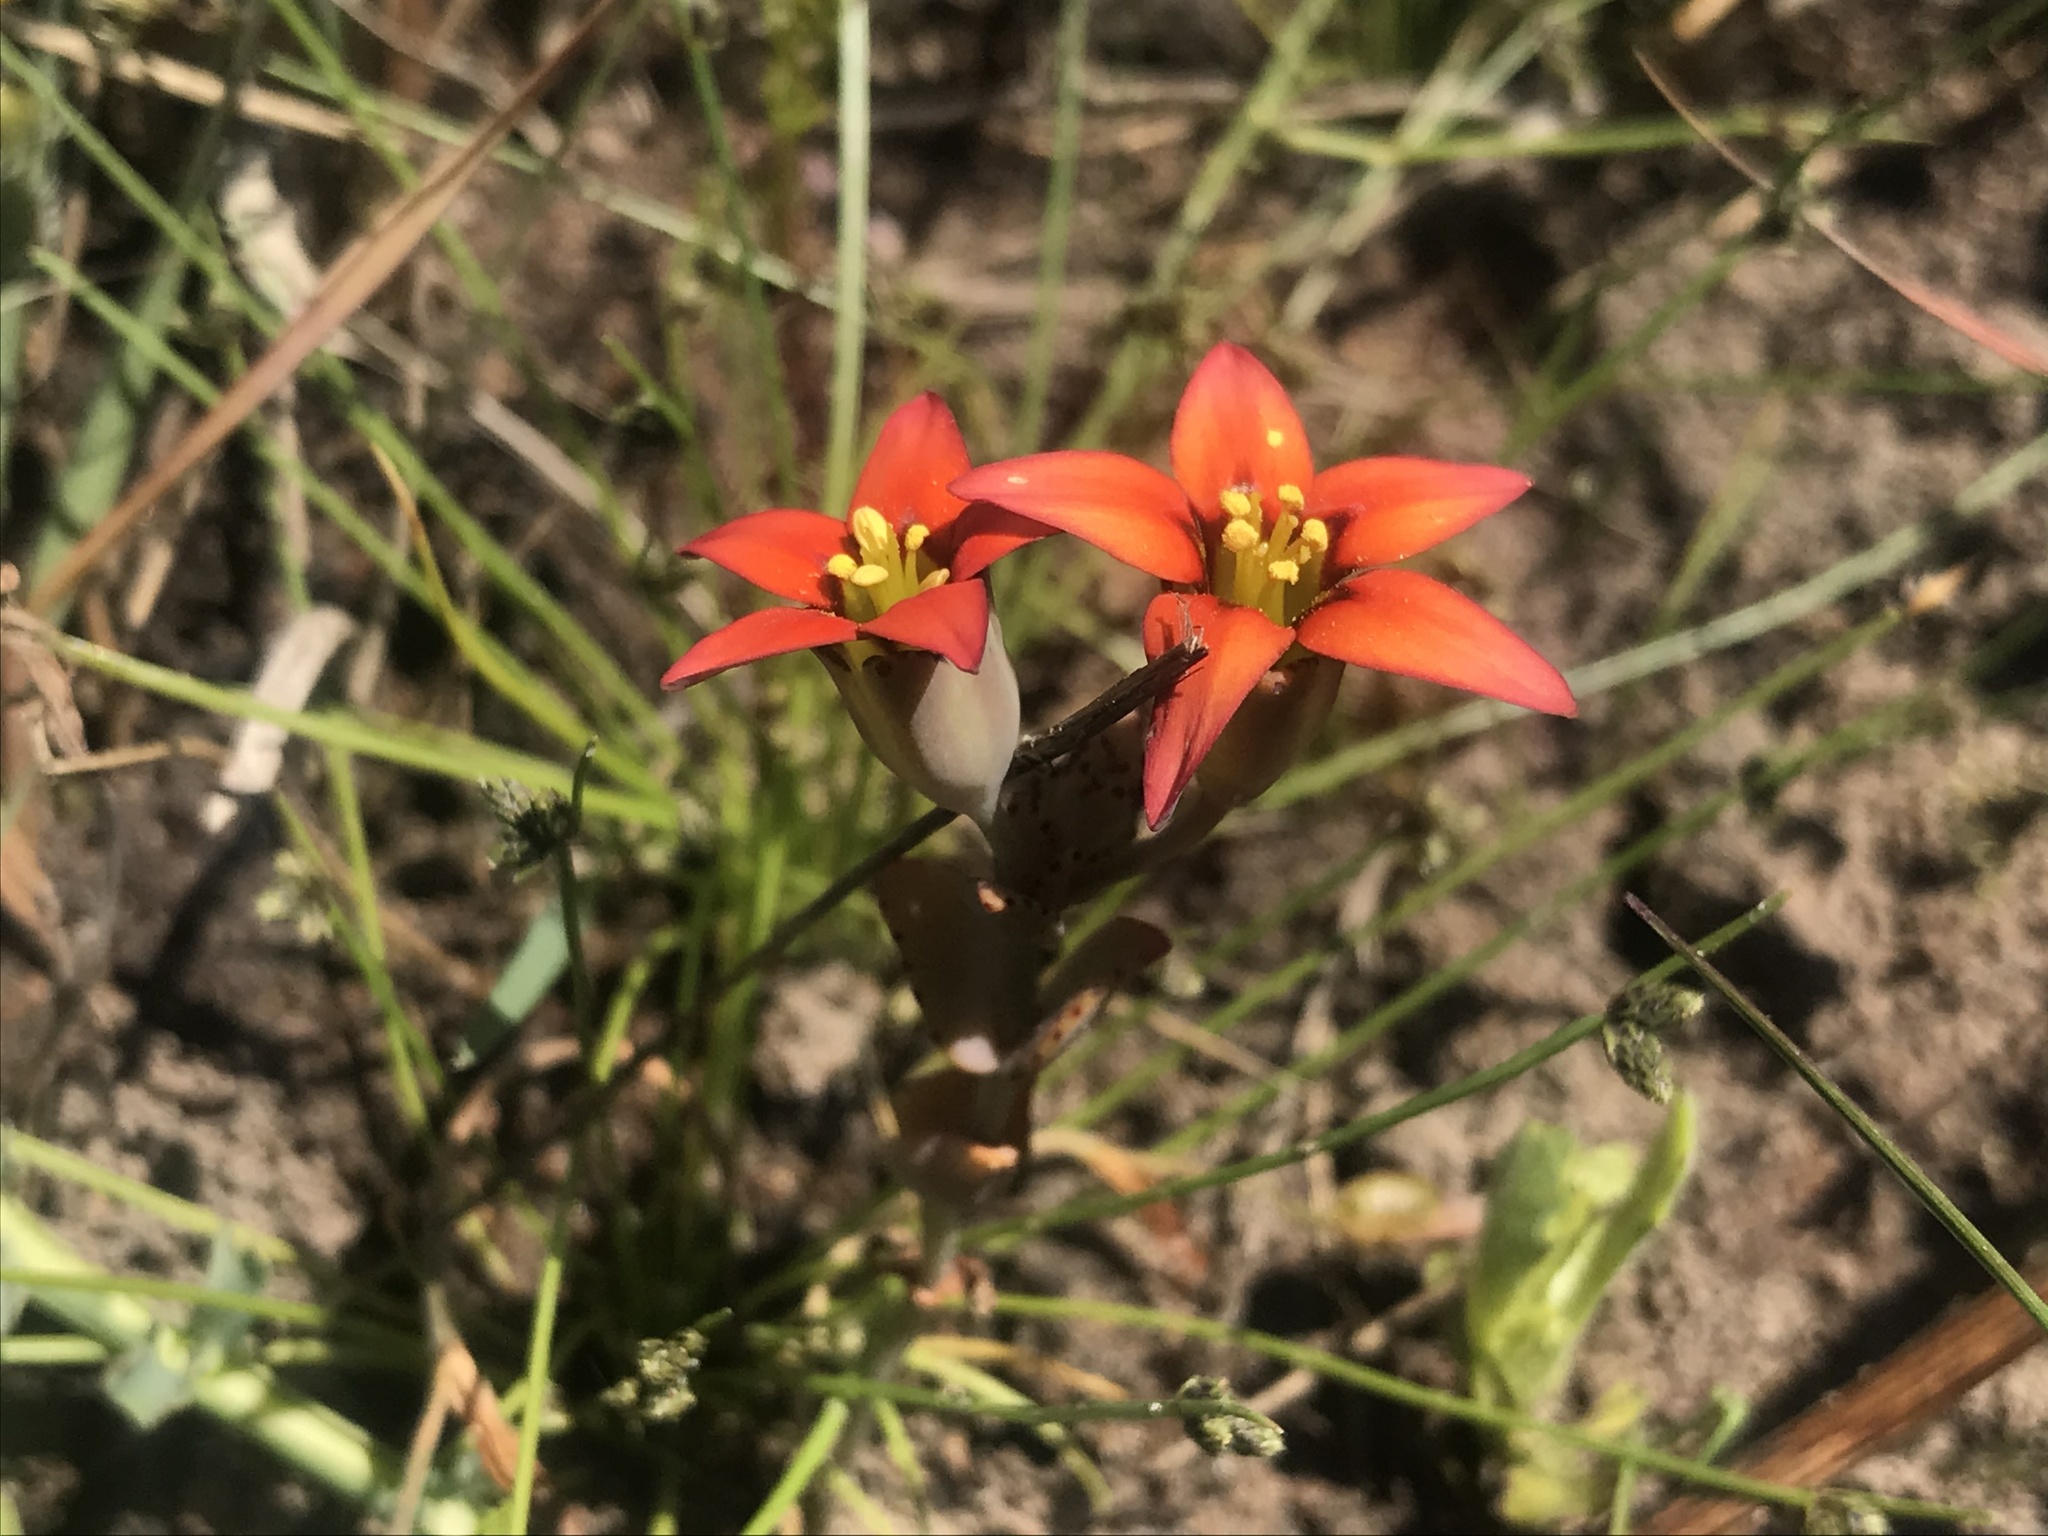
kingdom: Plantae
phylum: Tracheophyta
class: Magnoliopsida
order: Saxifragales
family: Crassulaceae
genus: Crassula
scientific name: Crassula dichotoma
